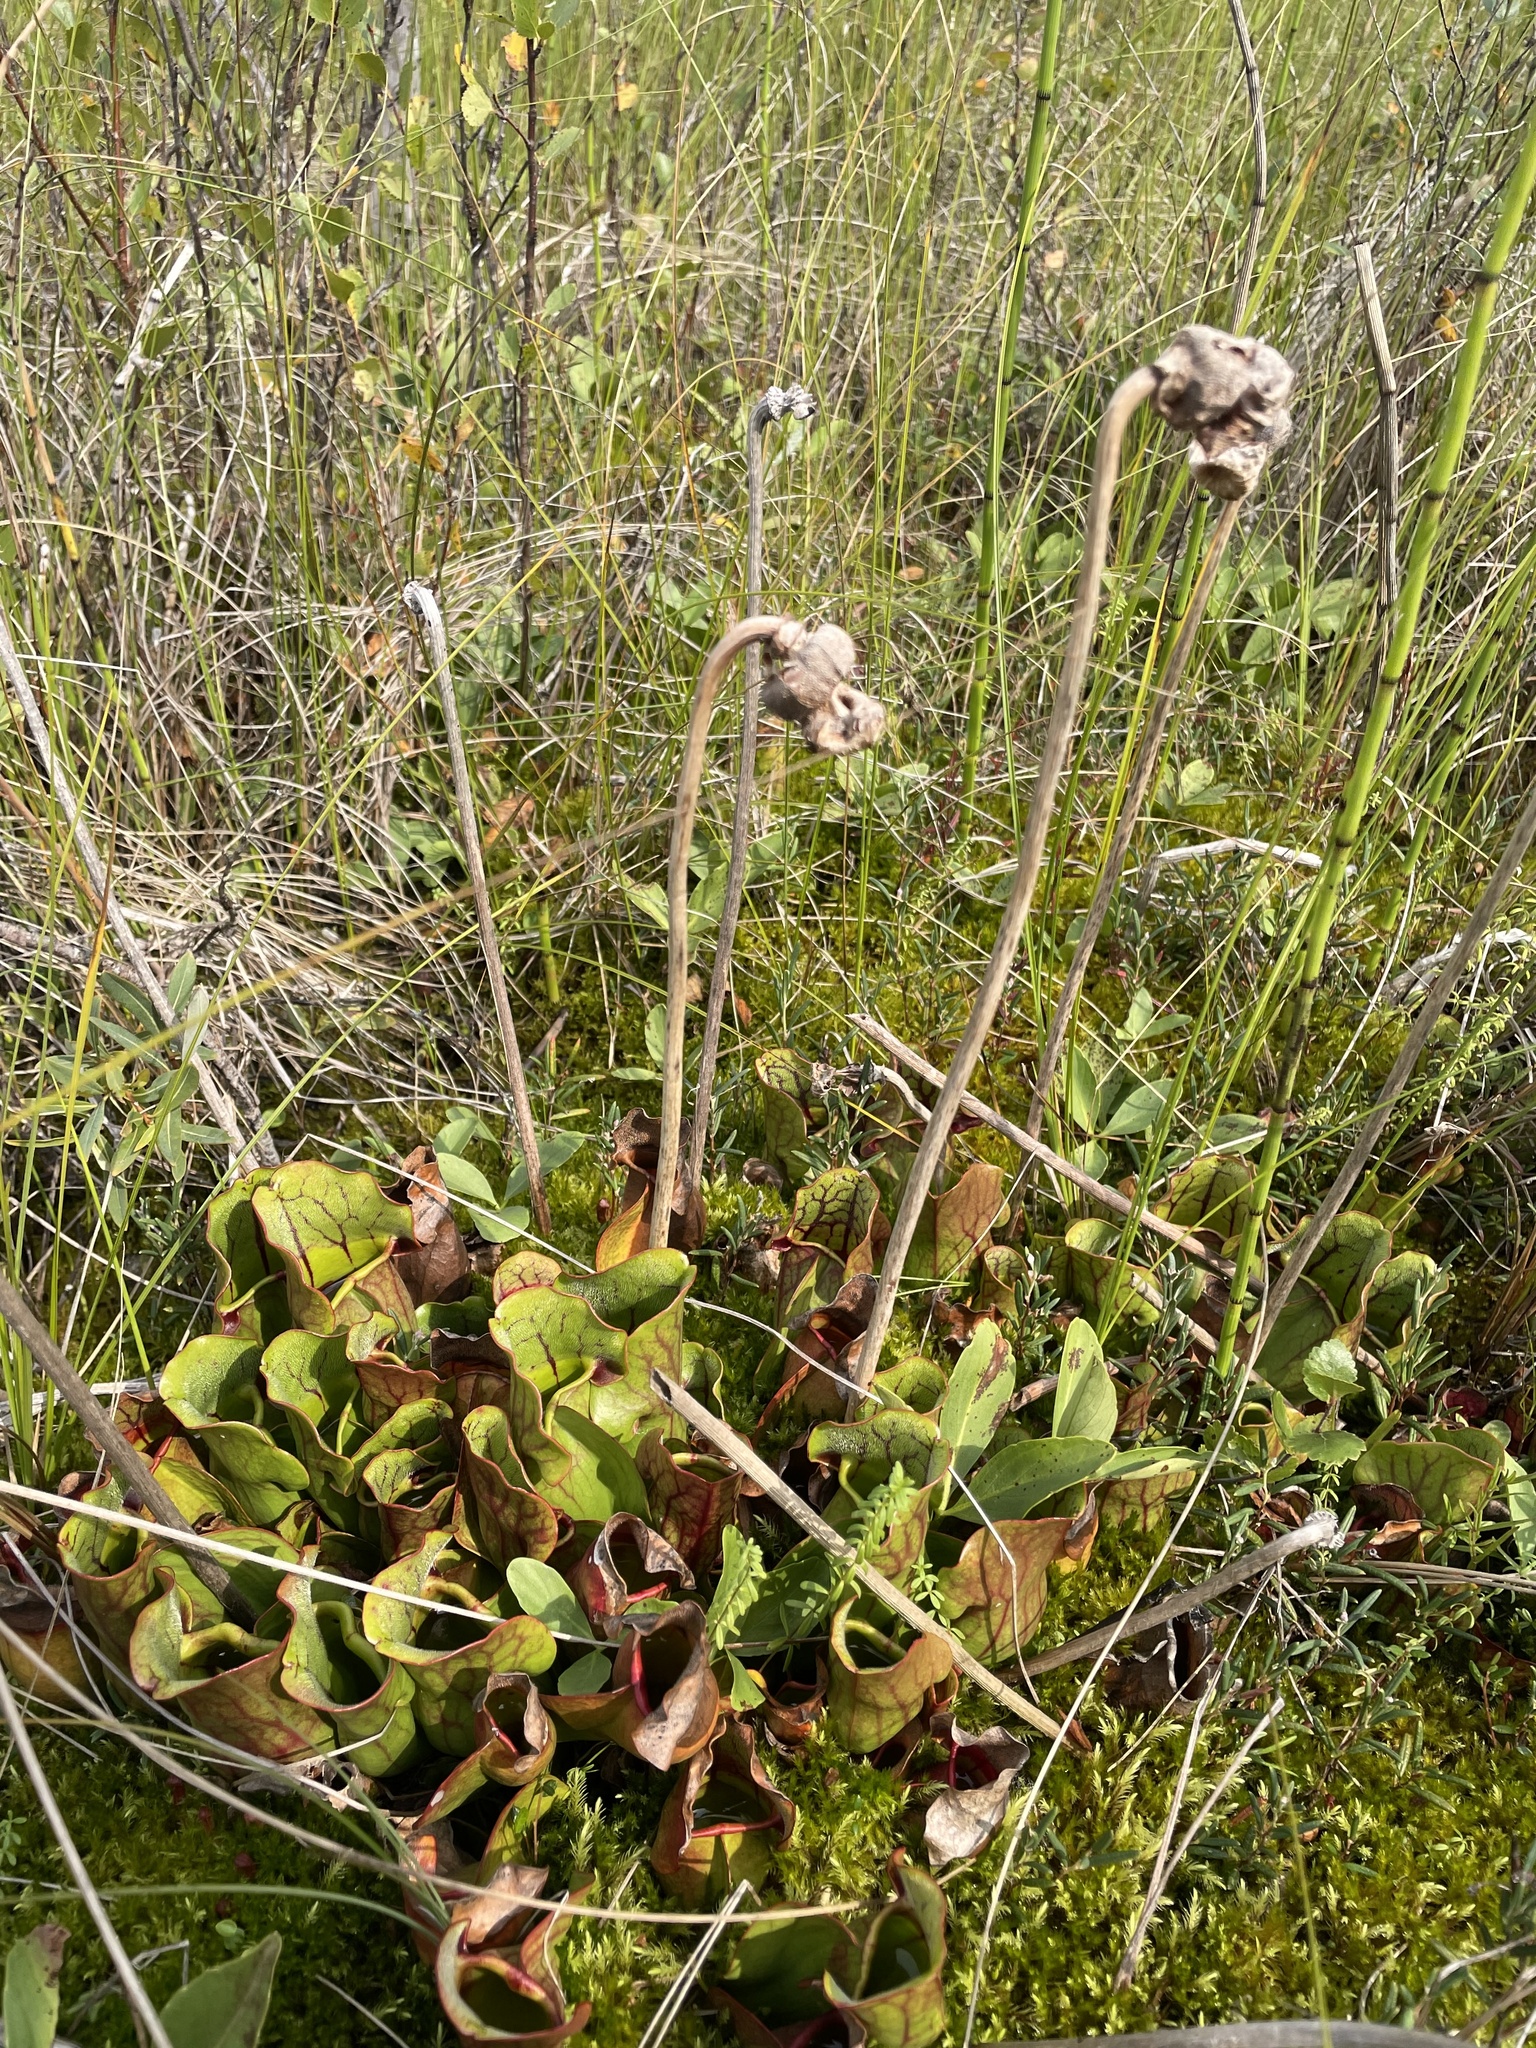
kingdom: Plantae
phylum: Tracheophyta
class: Magnoliopsida
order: Ericales
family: Sarraceniaceae
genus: Sarracenia
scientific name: Sarracenia purpurea
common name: Pitcherplant
